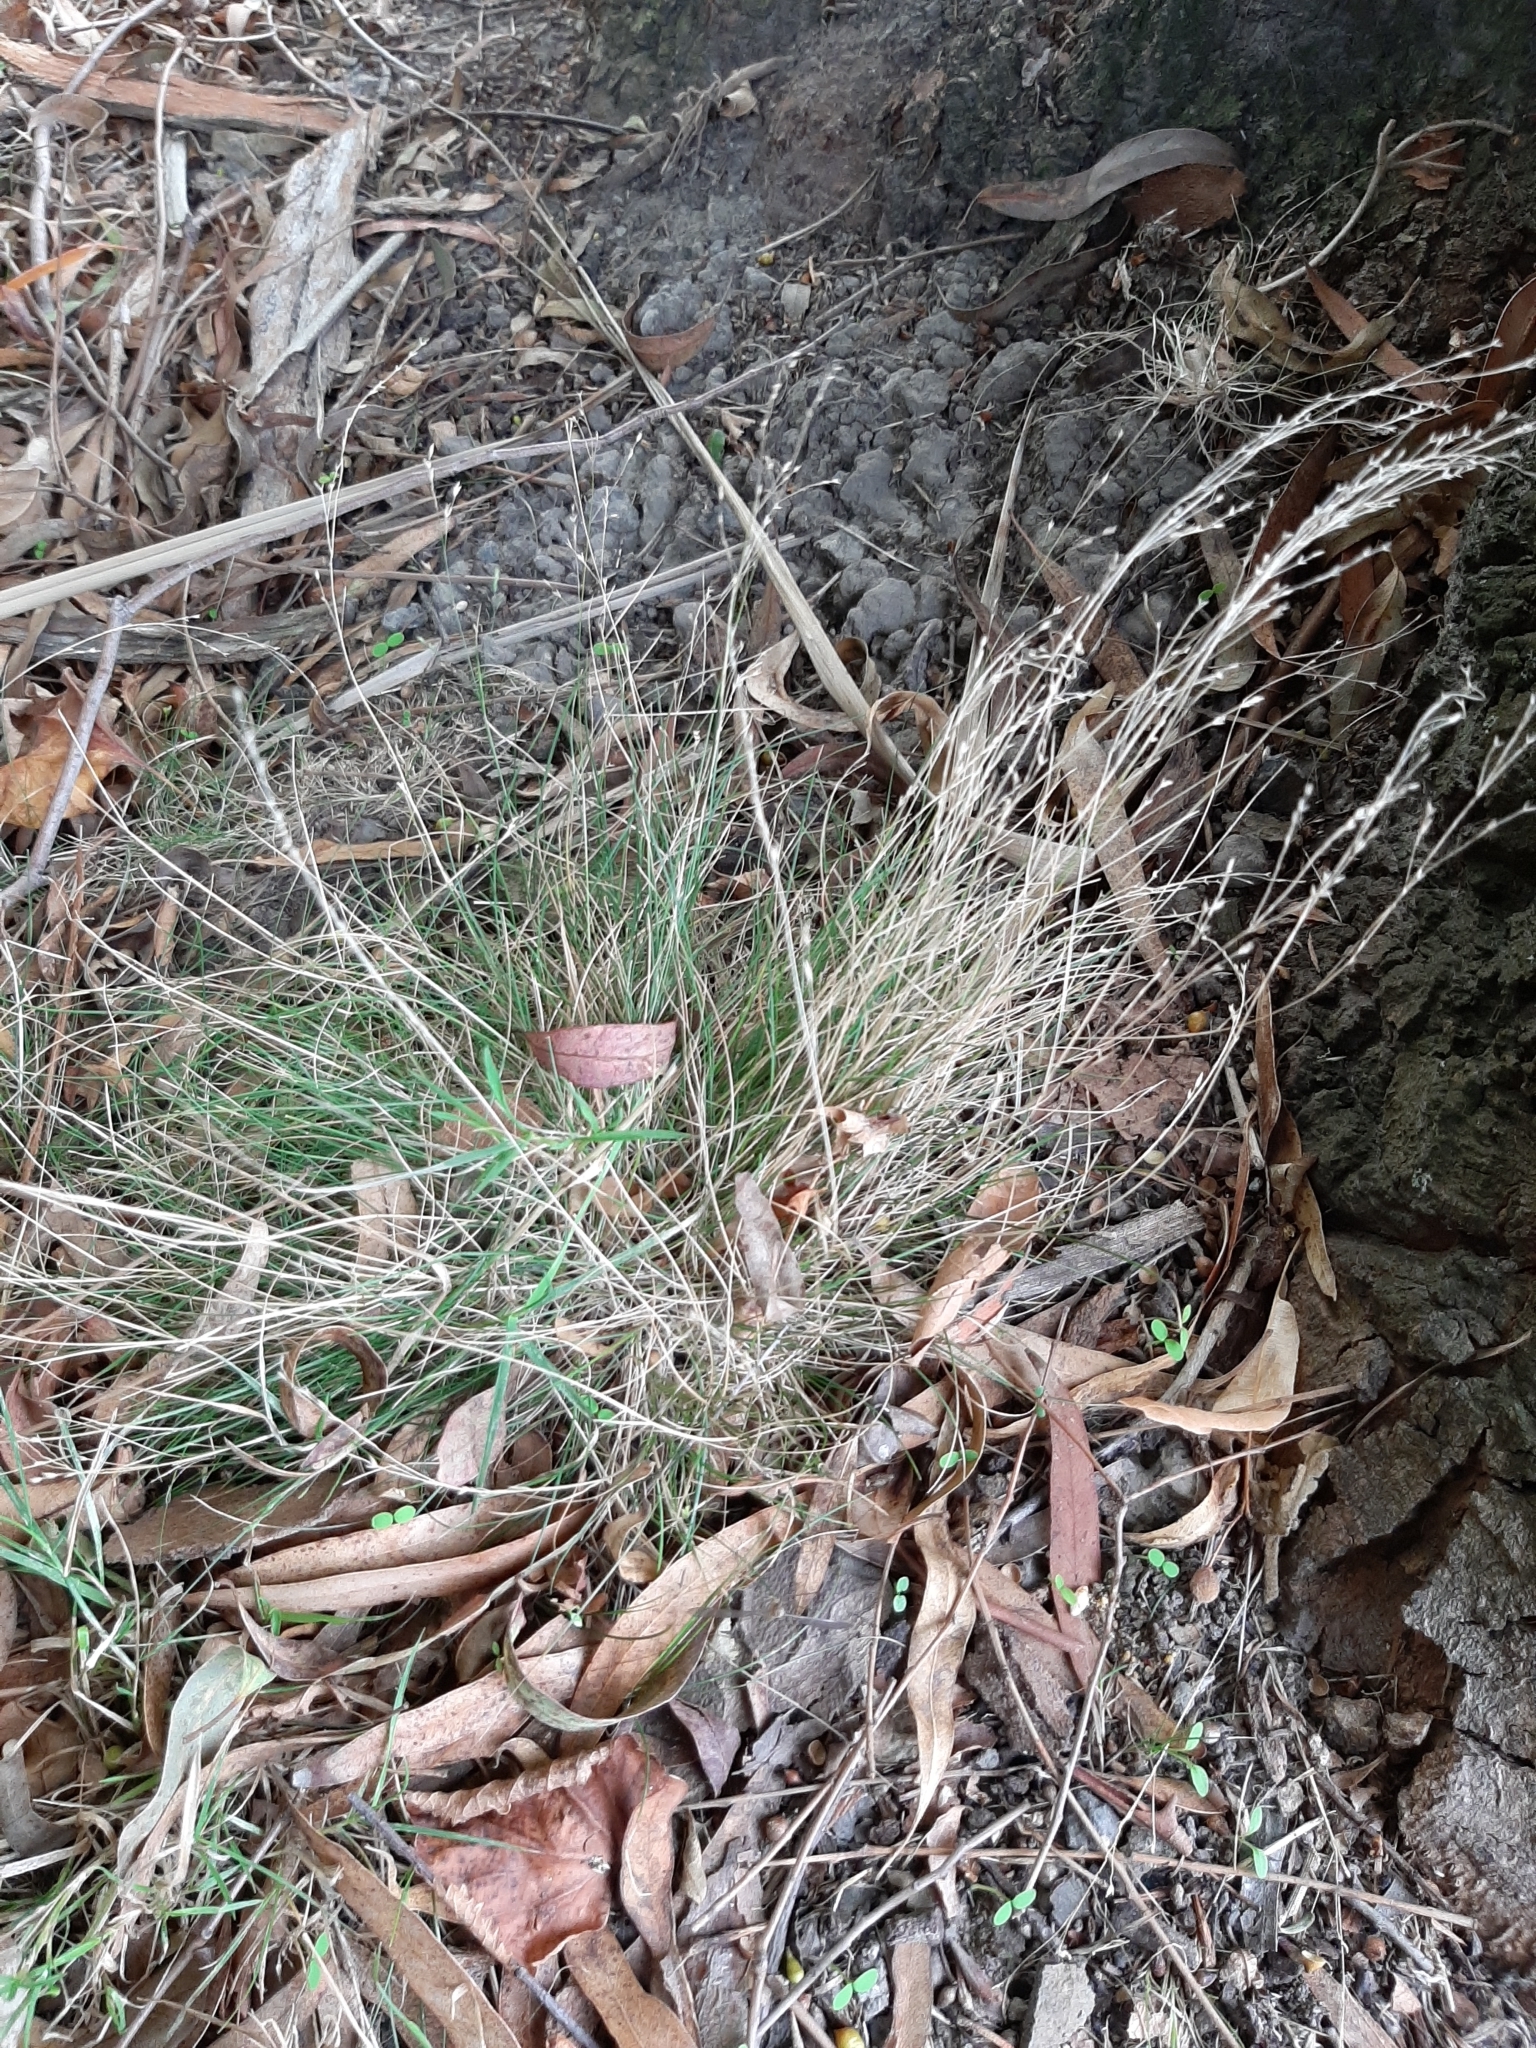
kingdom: Plantae
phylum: Tracheophyta
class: Liliopsida
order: Poales
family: Poaceae
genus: Poa
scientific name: Poa imbecilla
